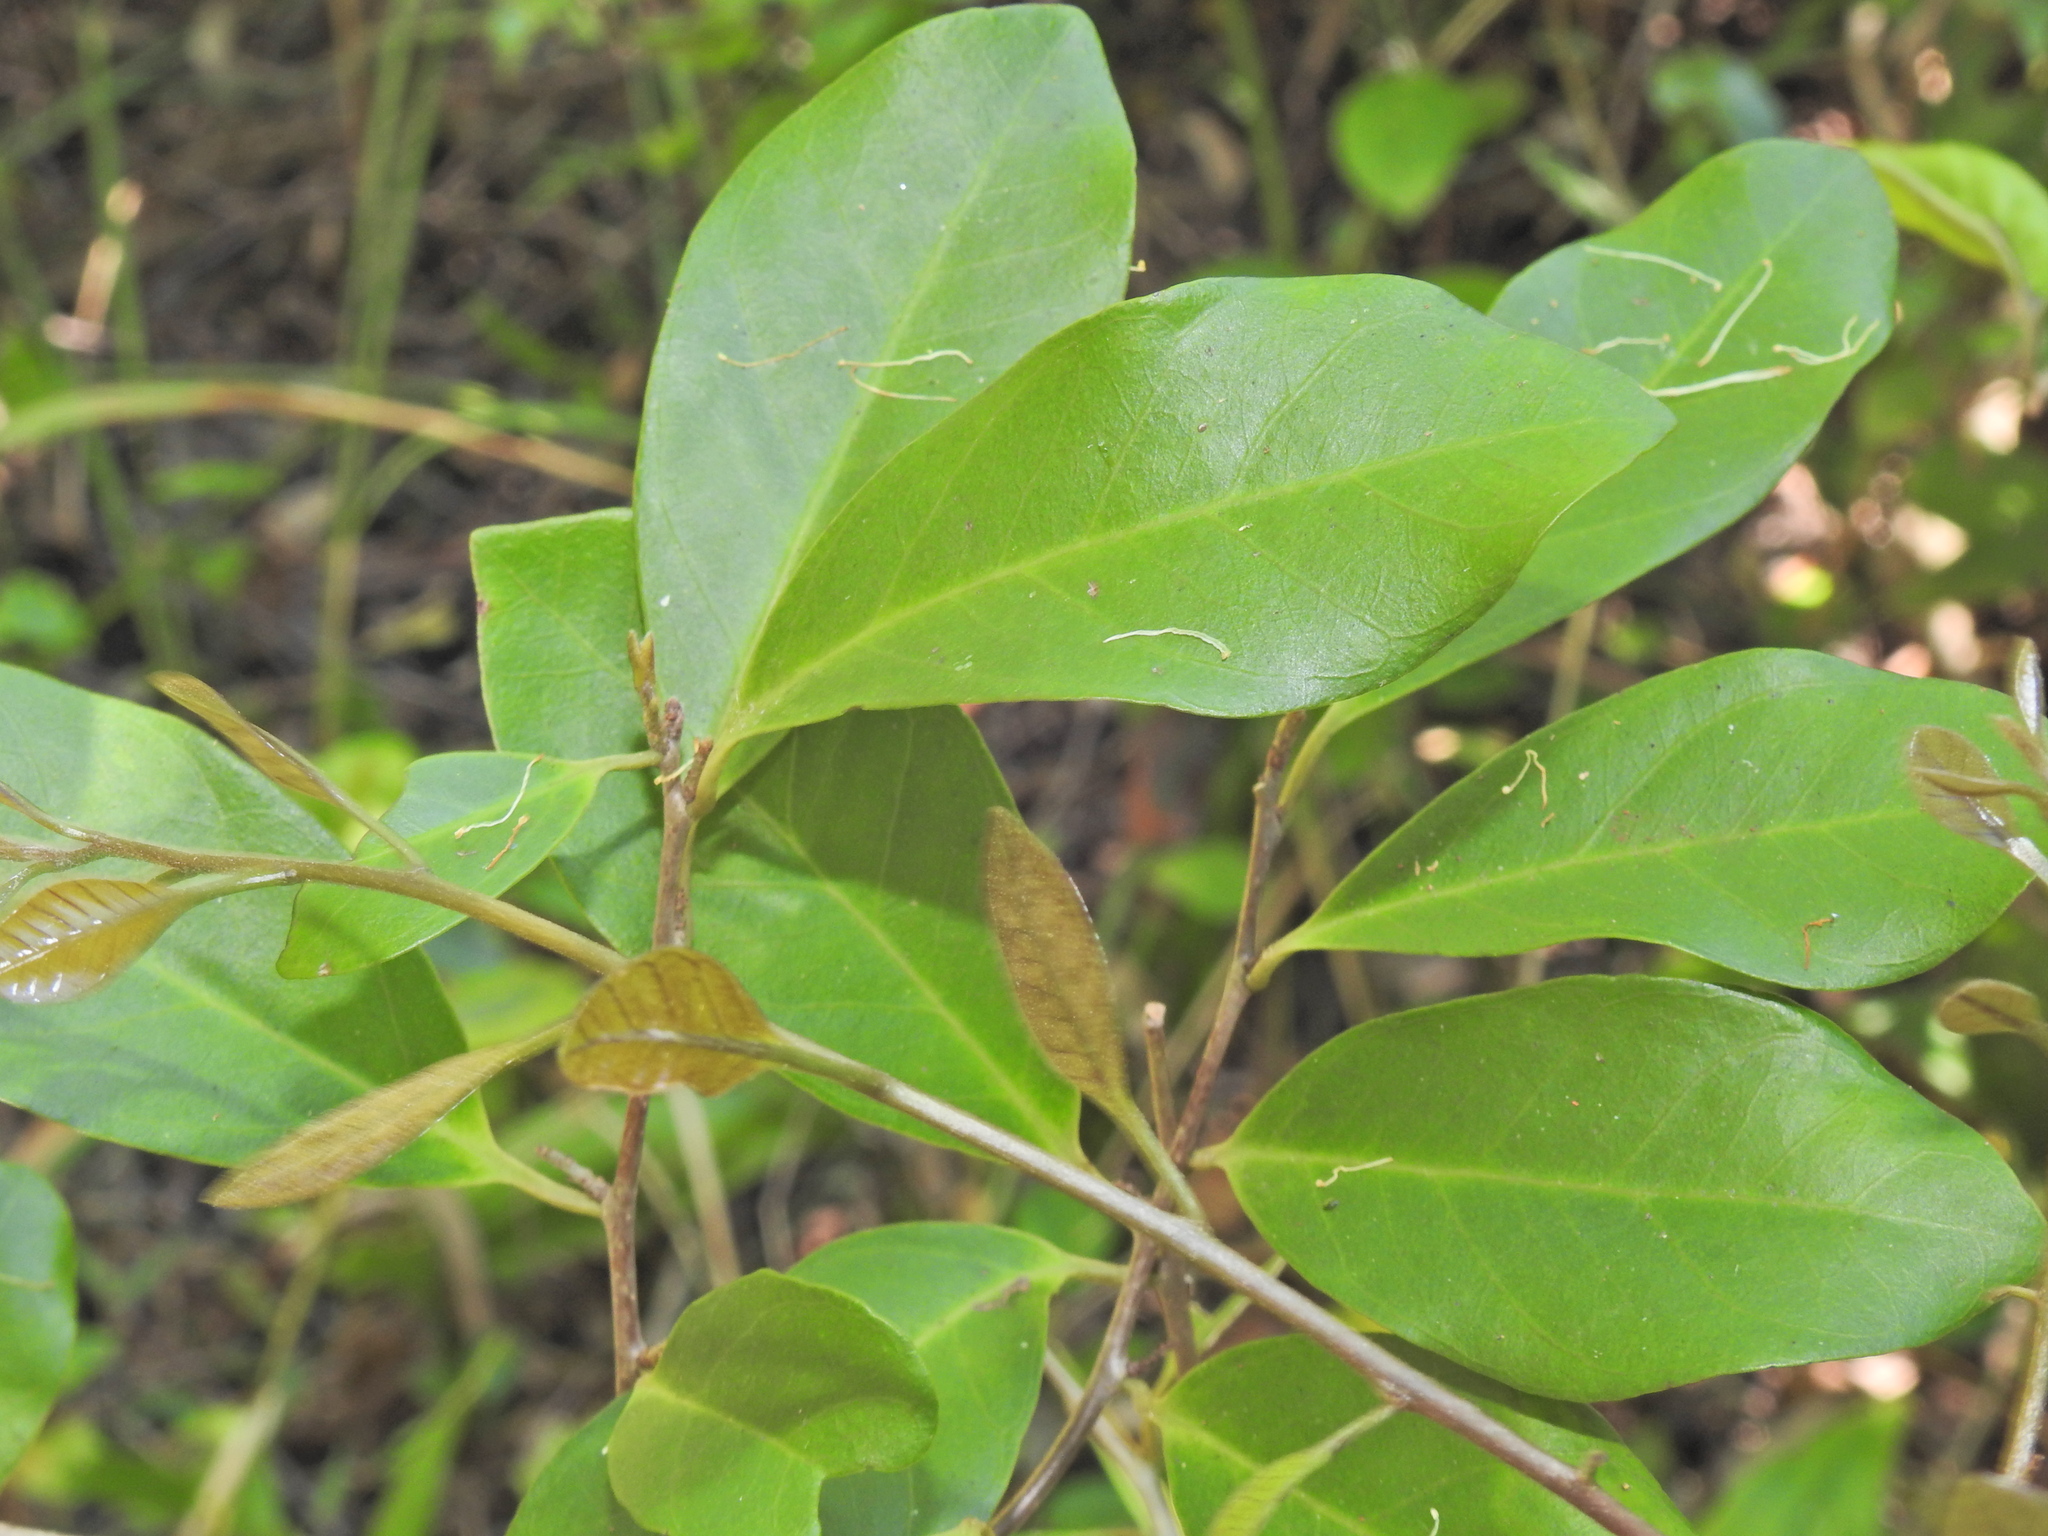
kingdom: Plantae
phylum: Tracheophyta
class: Magnoliopsida
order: Ericales
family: Primulaceae
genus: Embelia
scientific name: Embelia australiana
